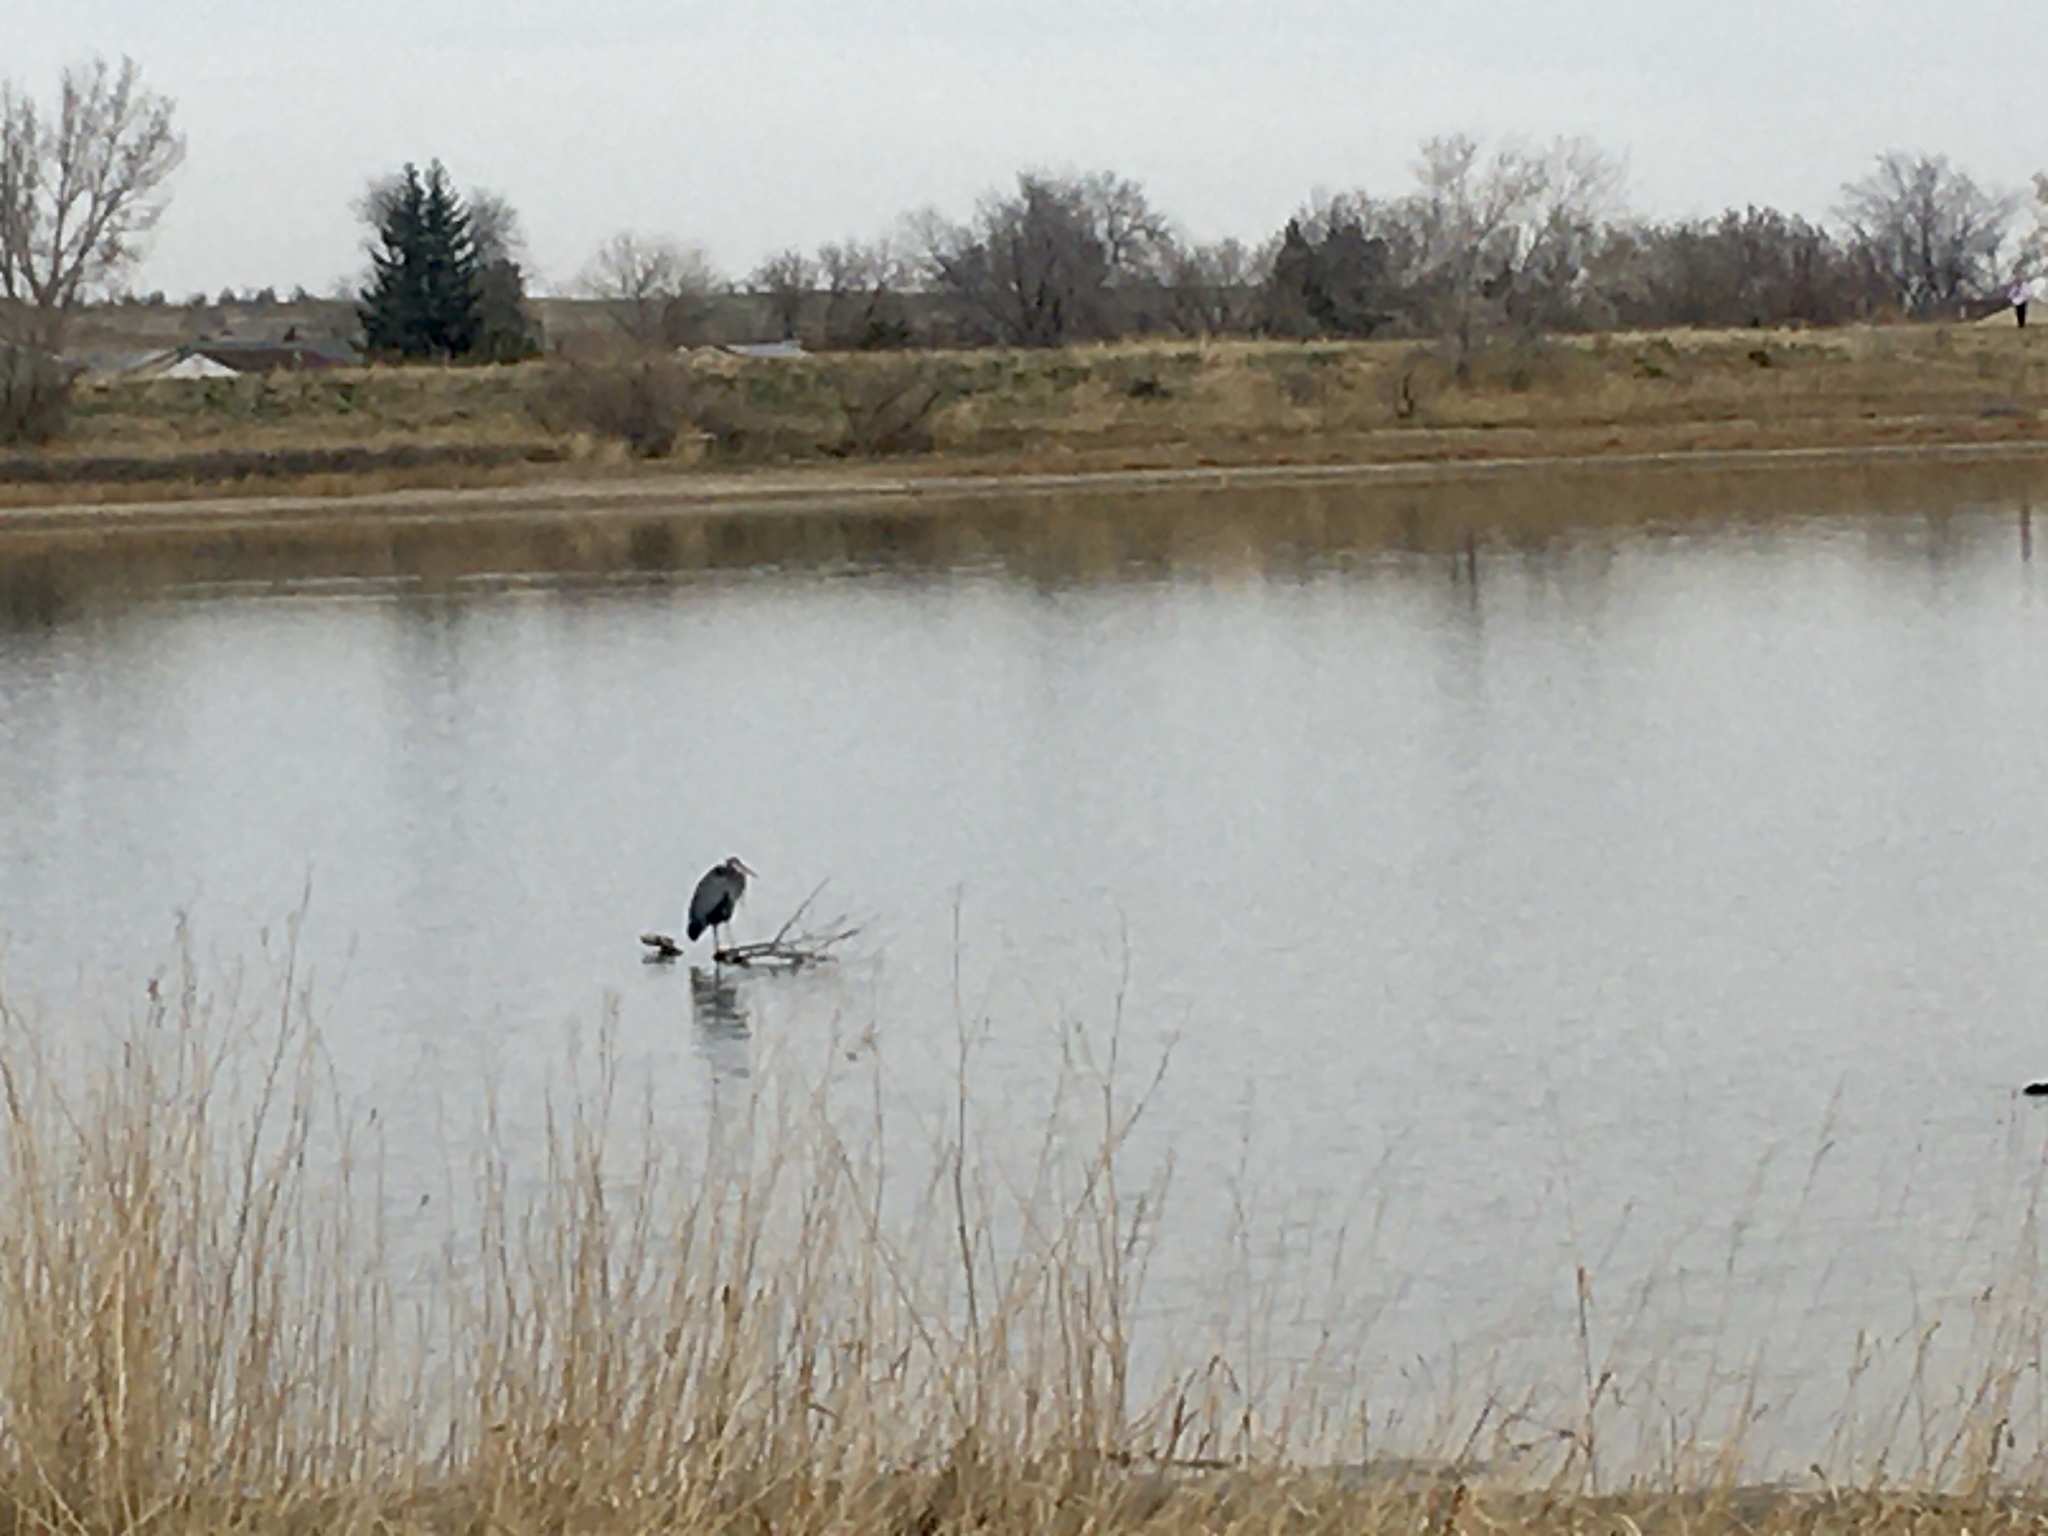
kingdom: Animalia
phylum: Chordata
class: Aves
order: Pelecaniformes
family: Ardeidae
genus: Ardea
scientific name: Ardea herodias
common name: Great blue heron
